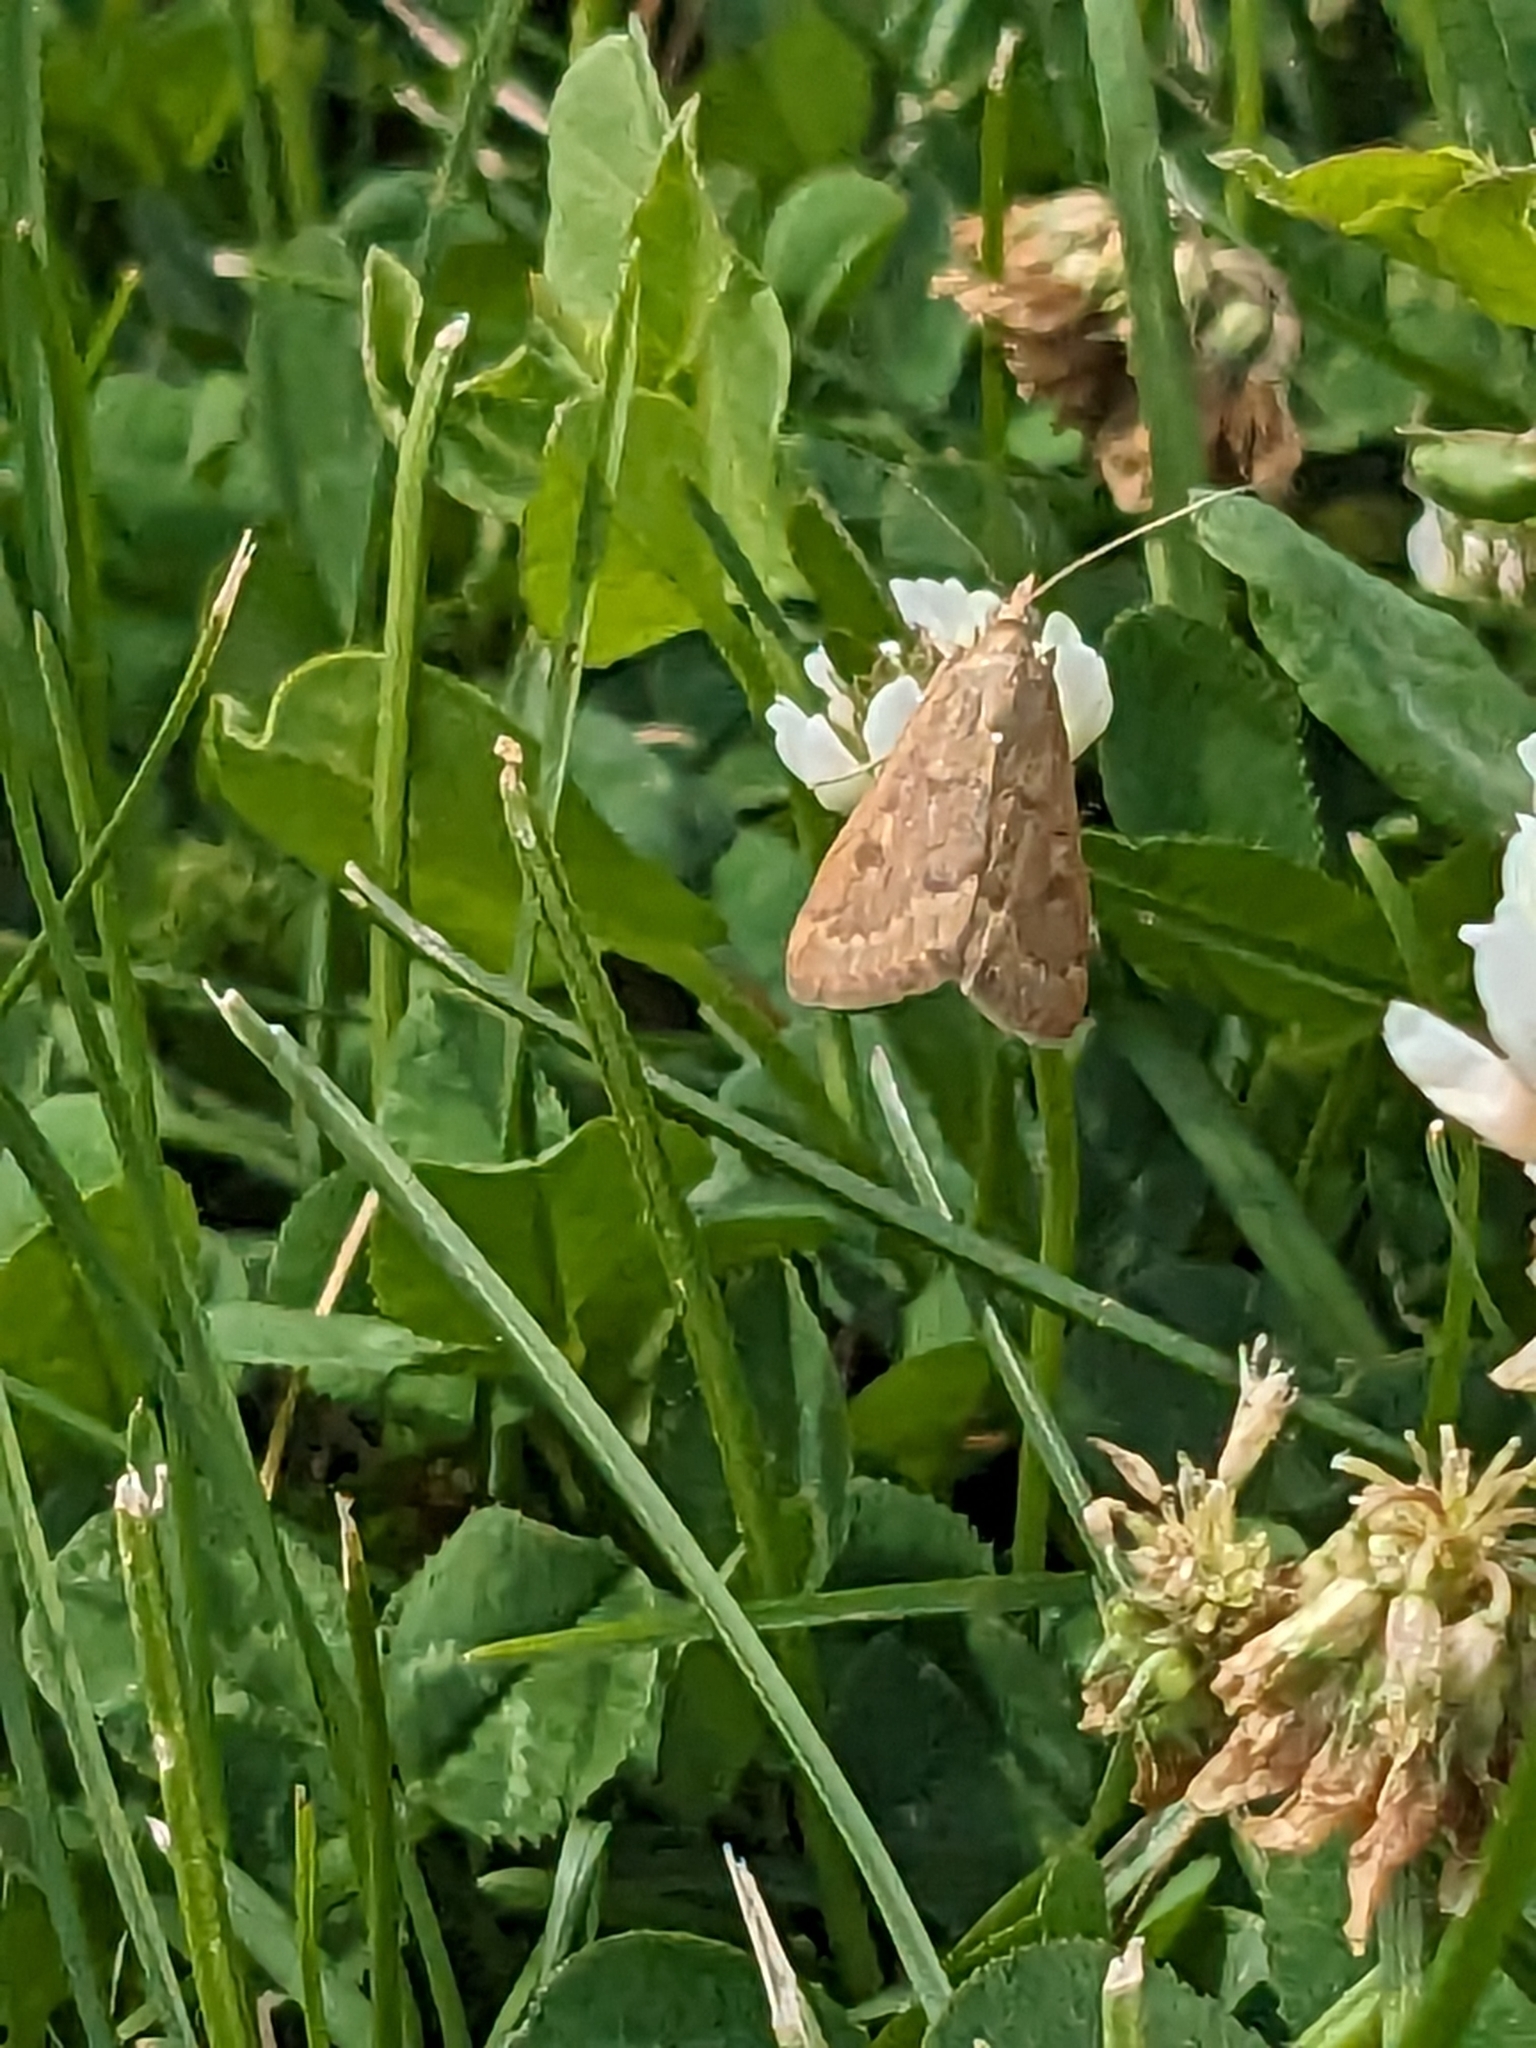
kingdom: Animalia
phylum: Arthropoda
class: Insecta
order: Lepidoptera
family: Crambidae
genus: Achyra
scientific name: Achyra rantalis
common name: Garden webworm
